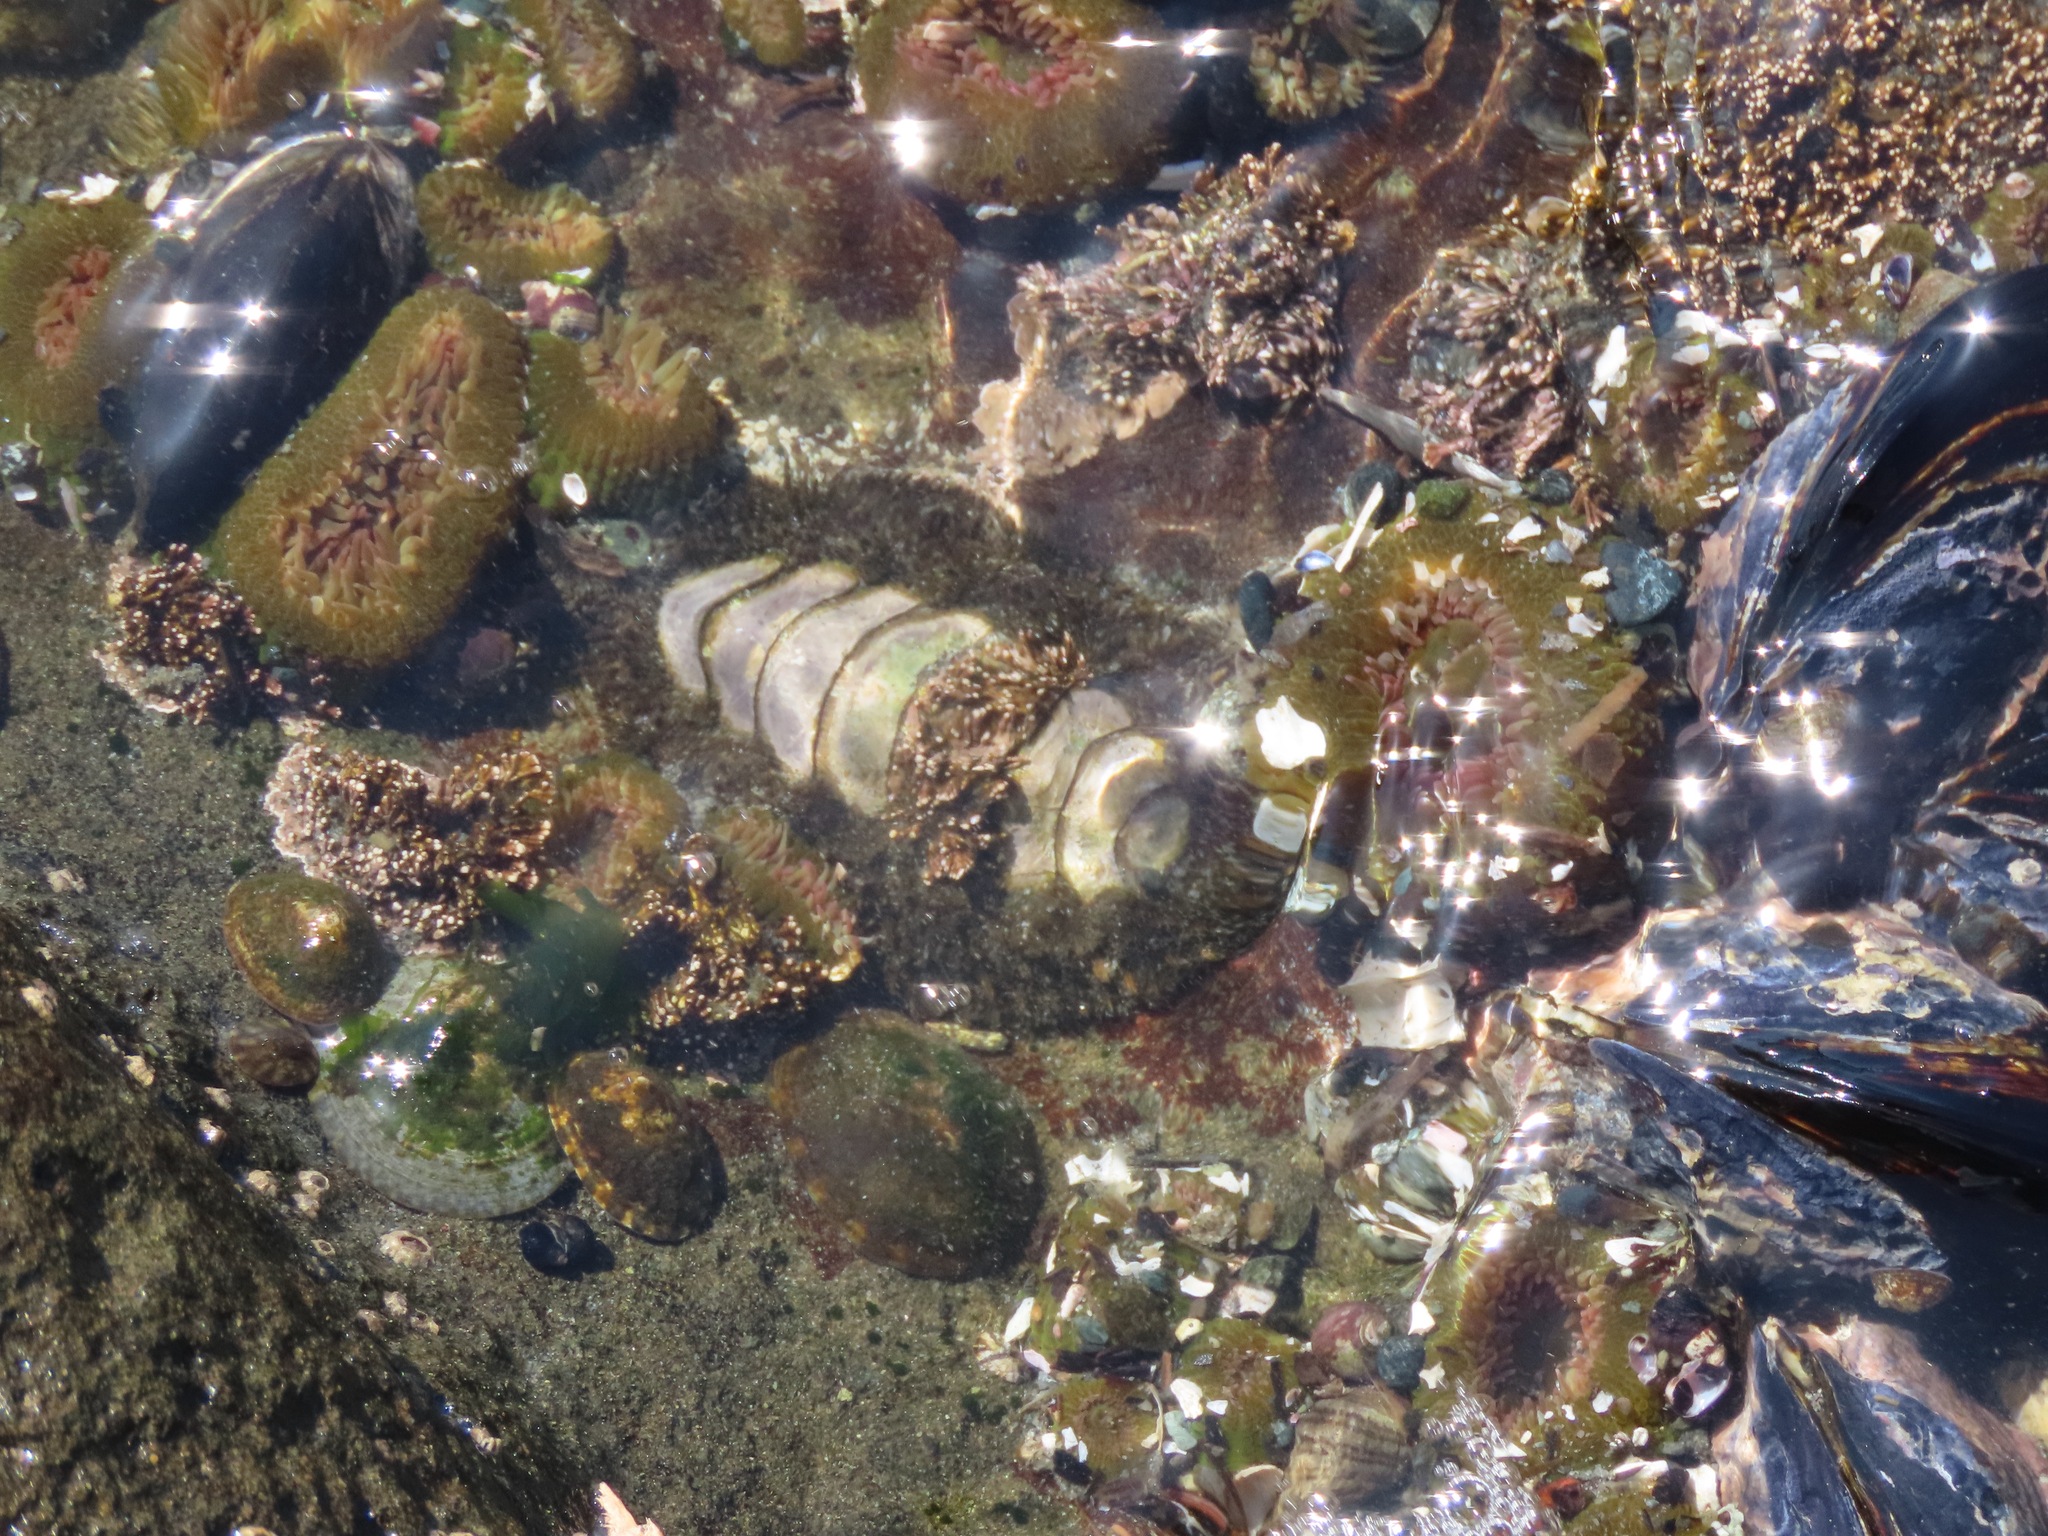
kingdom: Animalia
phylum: Mollusca
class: Polyplacophora
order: Chitonida
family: Mopaliidae
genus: Mopalia
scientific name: Mopalia muscosa
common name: Mossy chiton
